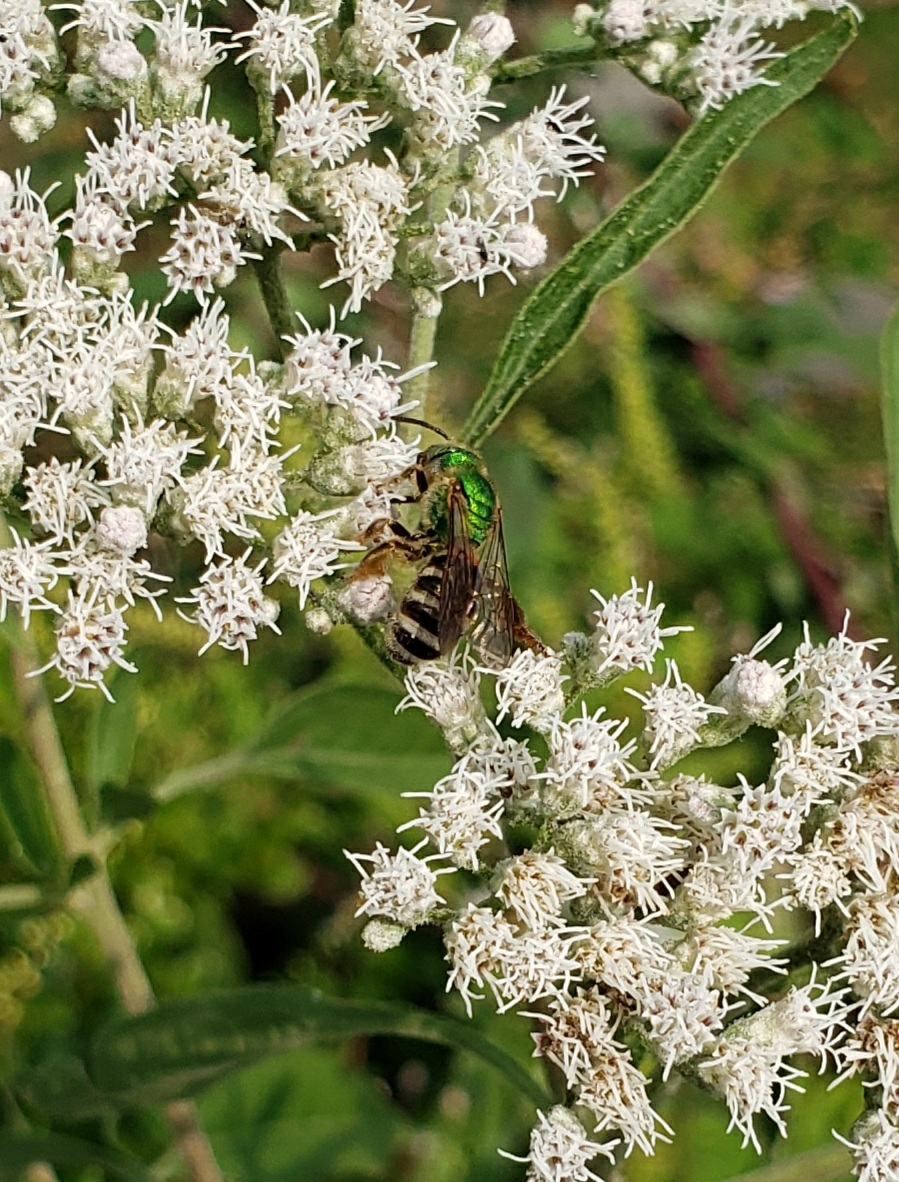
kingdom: Animalia
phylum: Arthropoda
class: Insecta
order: Hymenoptera
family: Halictidae
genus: Agapostemon
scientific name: Agapostemon virescens
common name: Bicolored striped sweat bee
